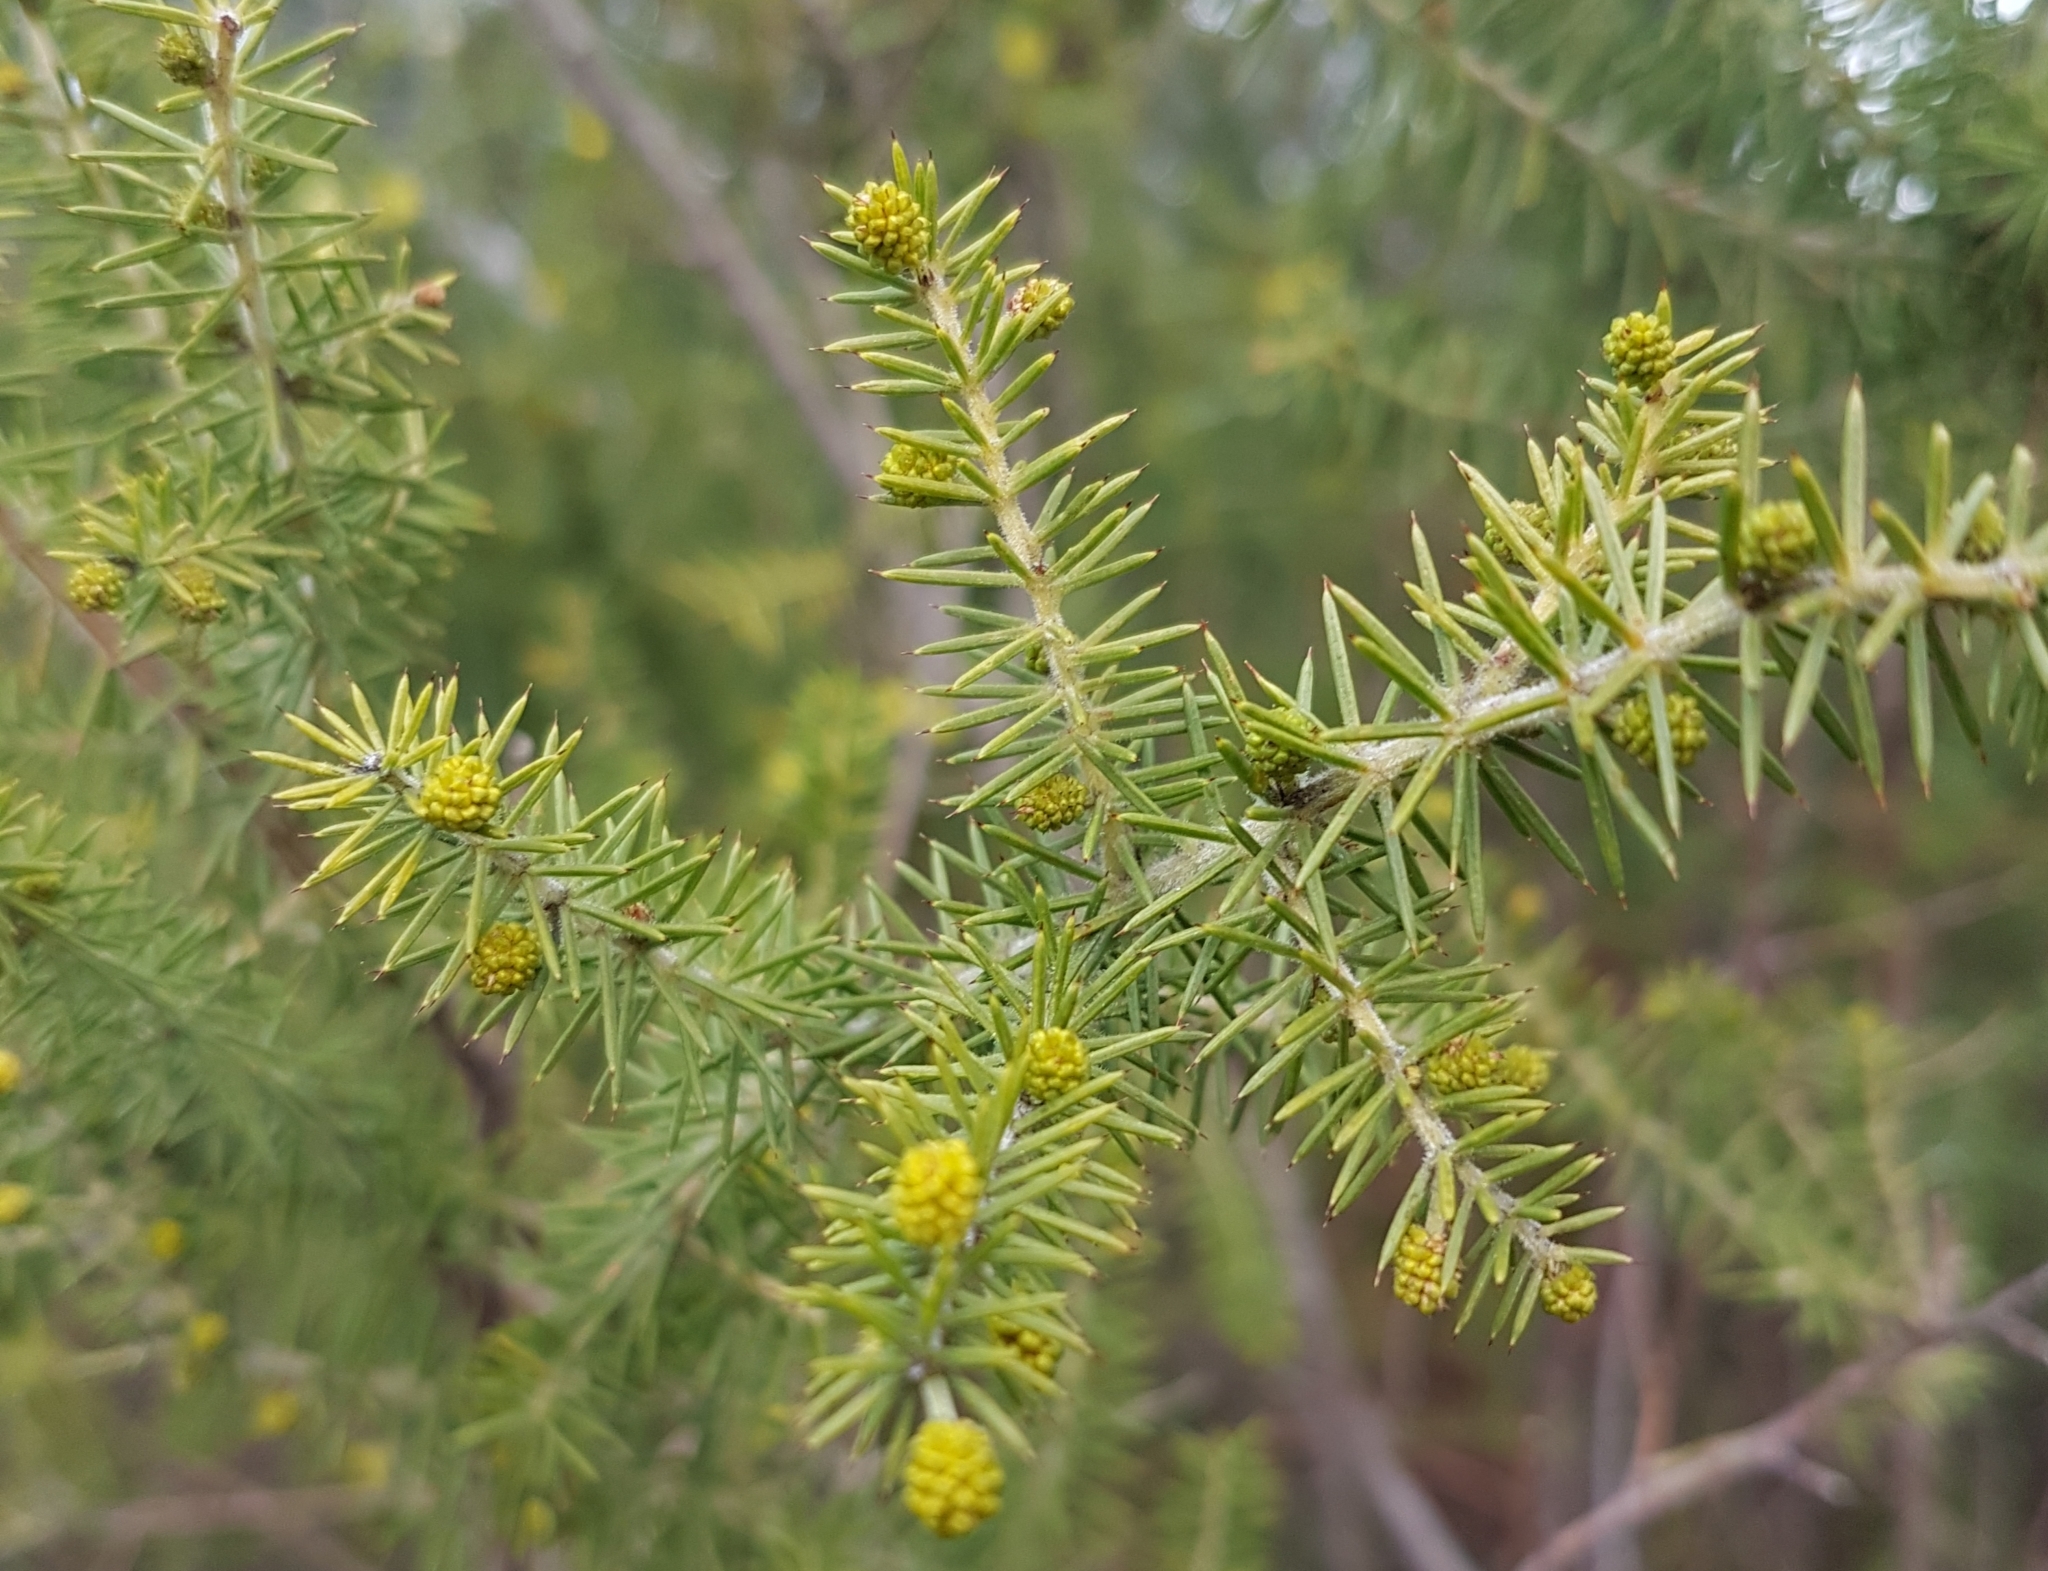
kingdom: Plantae
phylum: Tracheophyta
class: Magnoliopsida
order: Fabales
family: Fabaceae
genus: Acacia
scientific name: Acacia verticillata
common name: Prickly moses
